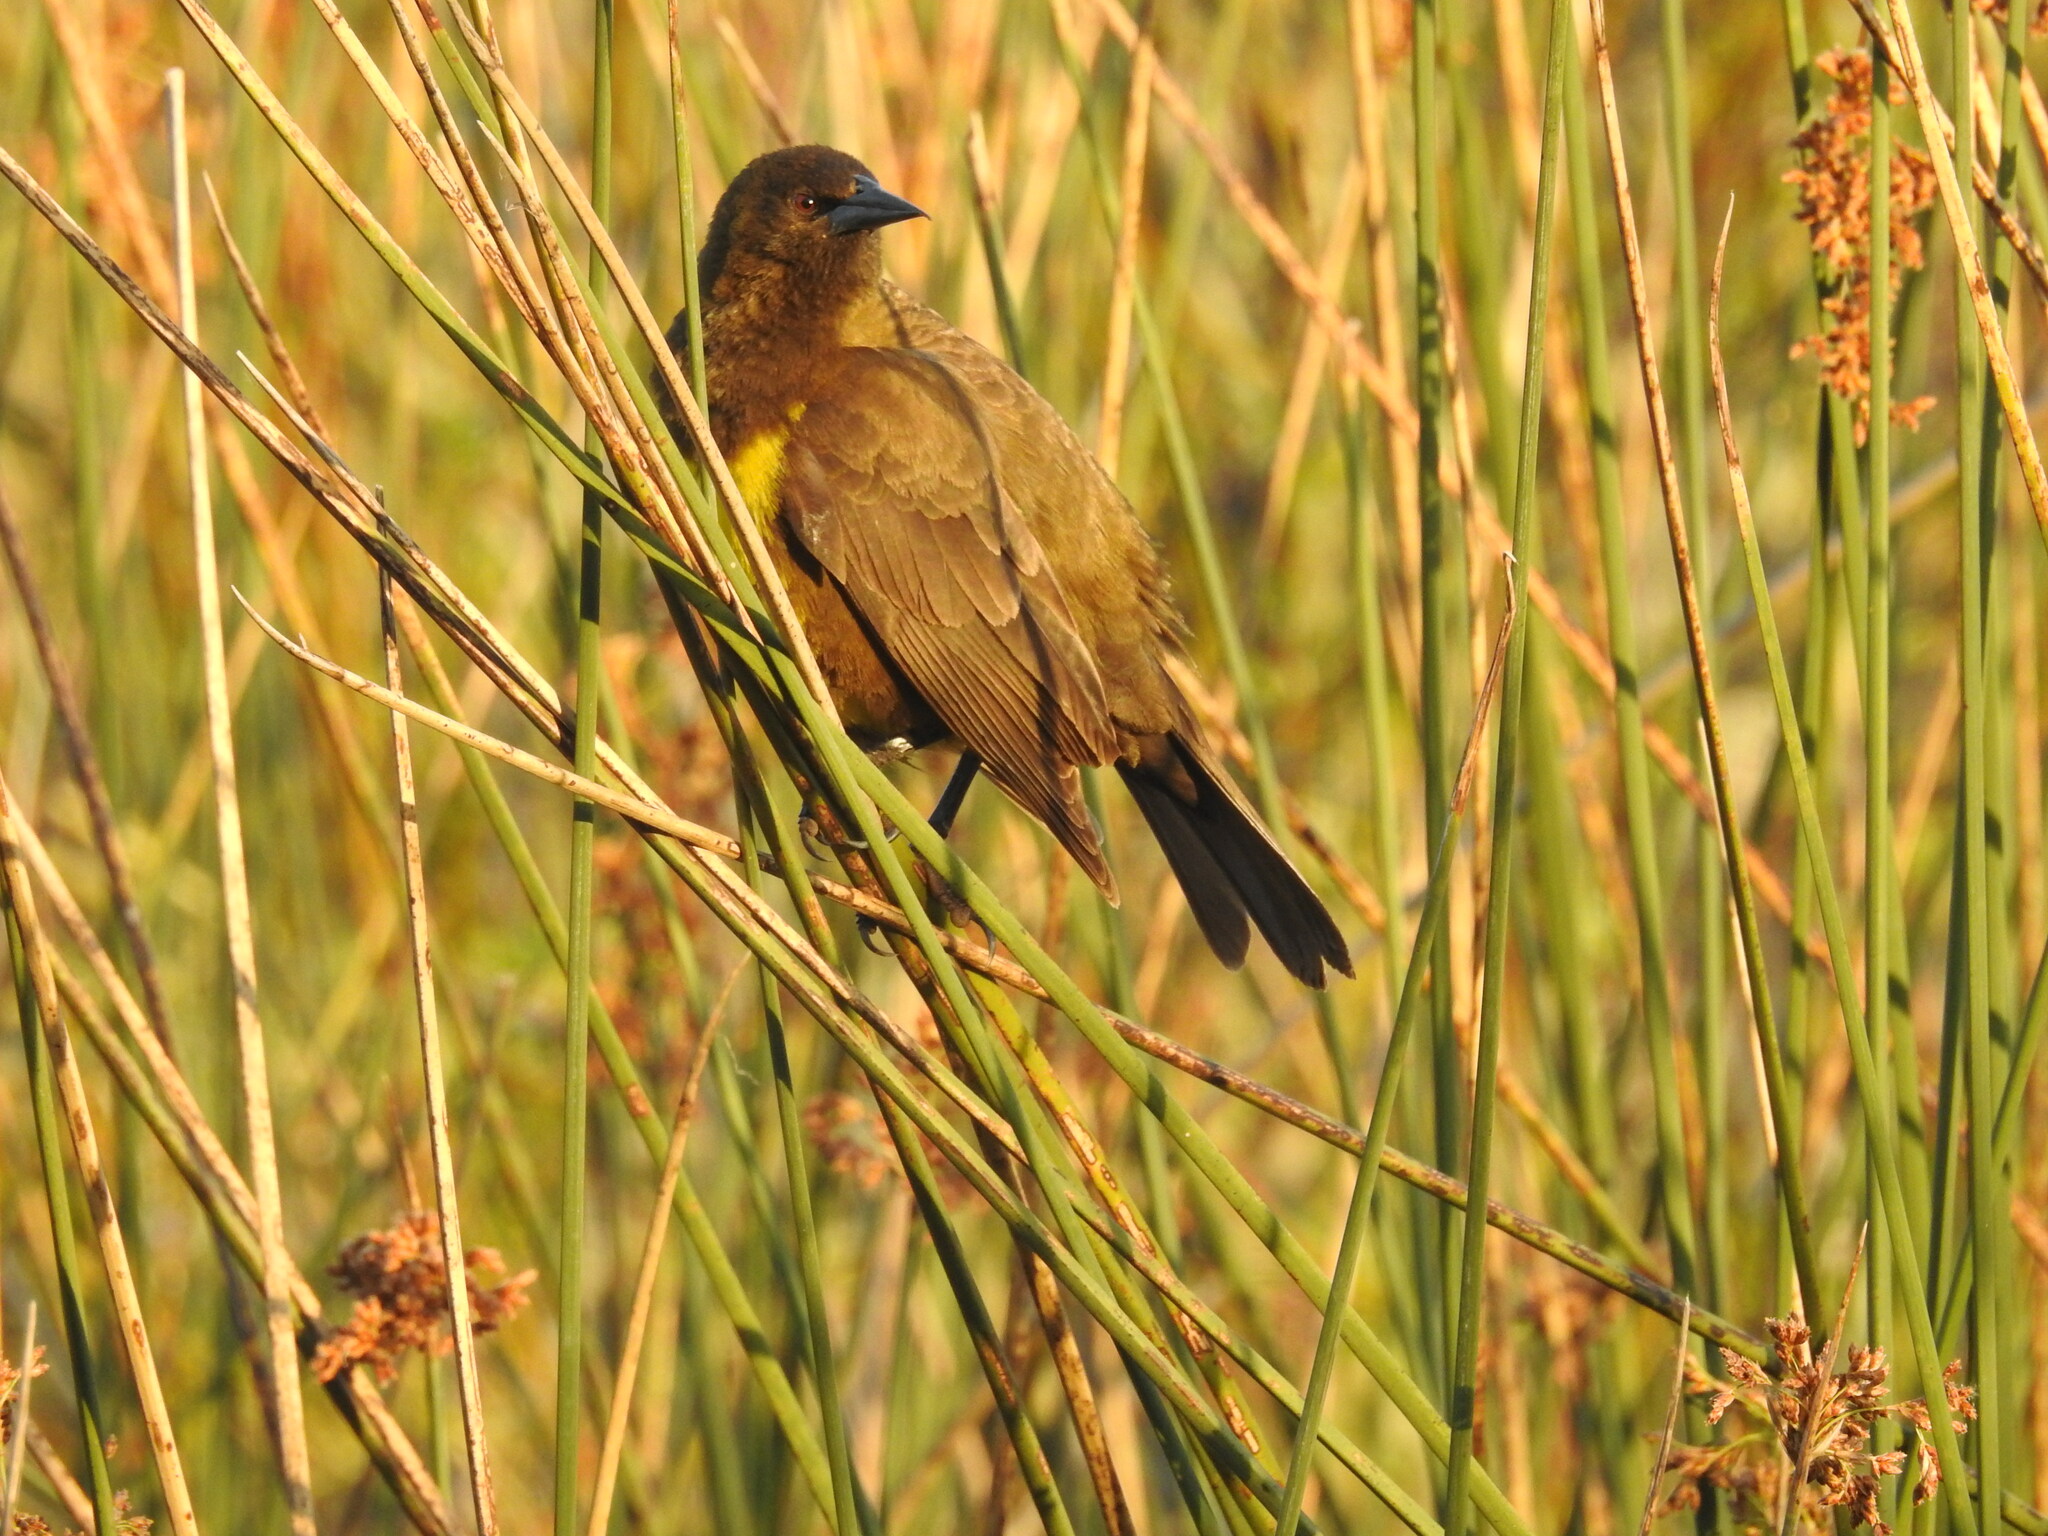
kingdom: Animalia
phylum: Chordata
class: Aves
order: Passeriformes
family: Icteridae
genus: Pseudoleistes
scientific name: Pseudoleistes virescens
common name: Brown-and-yellow marshbird
